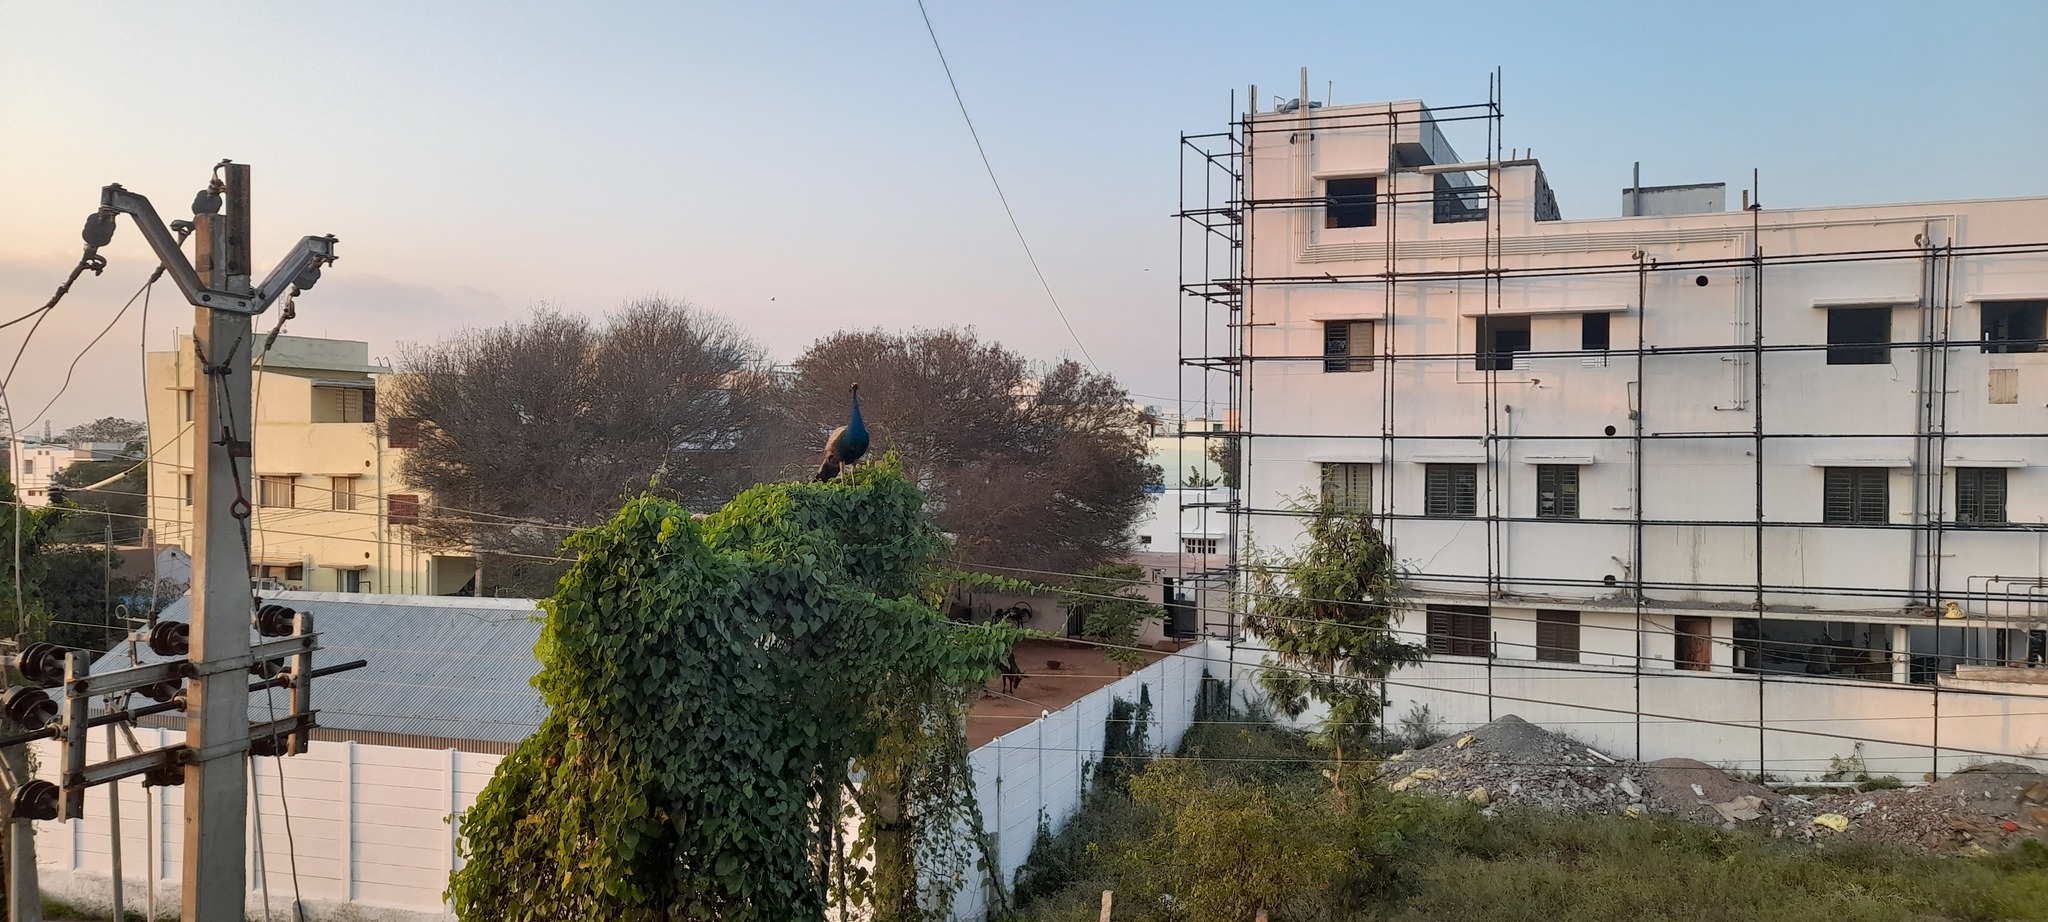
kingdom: Animalia
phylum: Chordata
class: Aves
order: Galliformes
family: Phasianidae
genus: Pavo
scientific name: Pavo cristatus
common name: Indian peafowl
